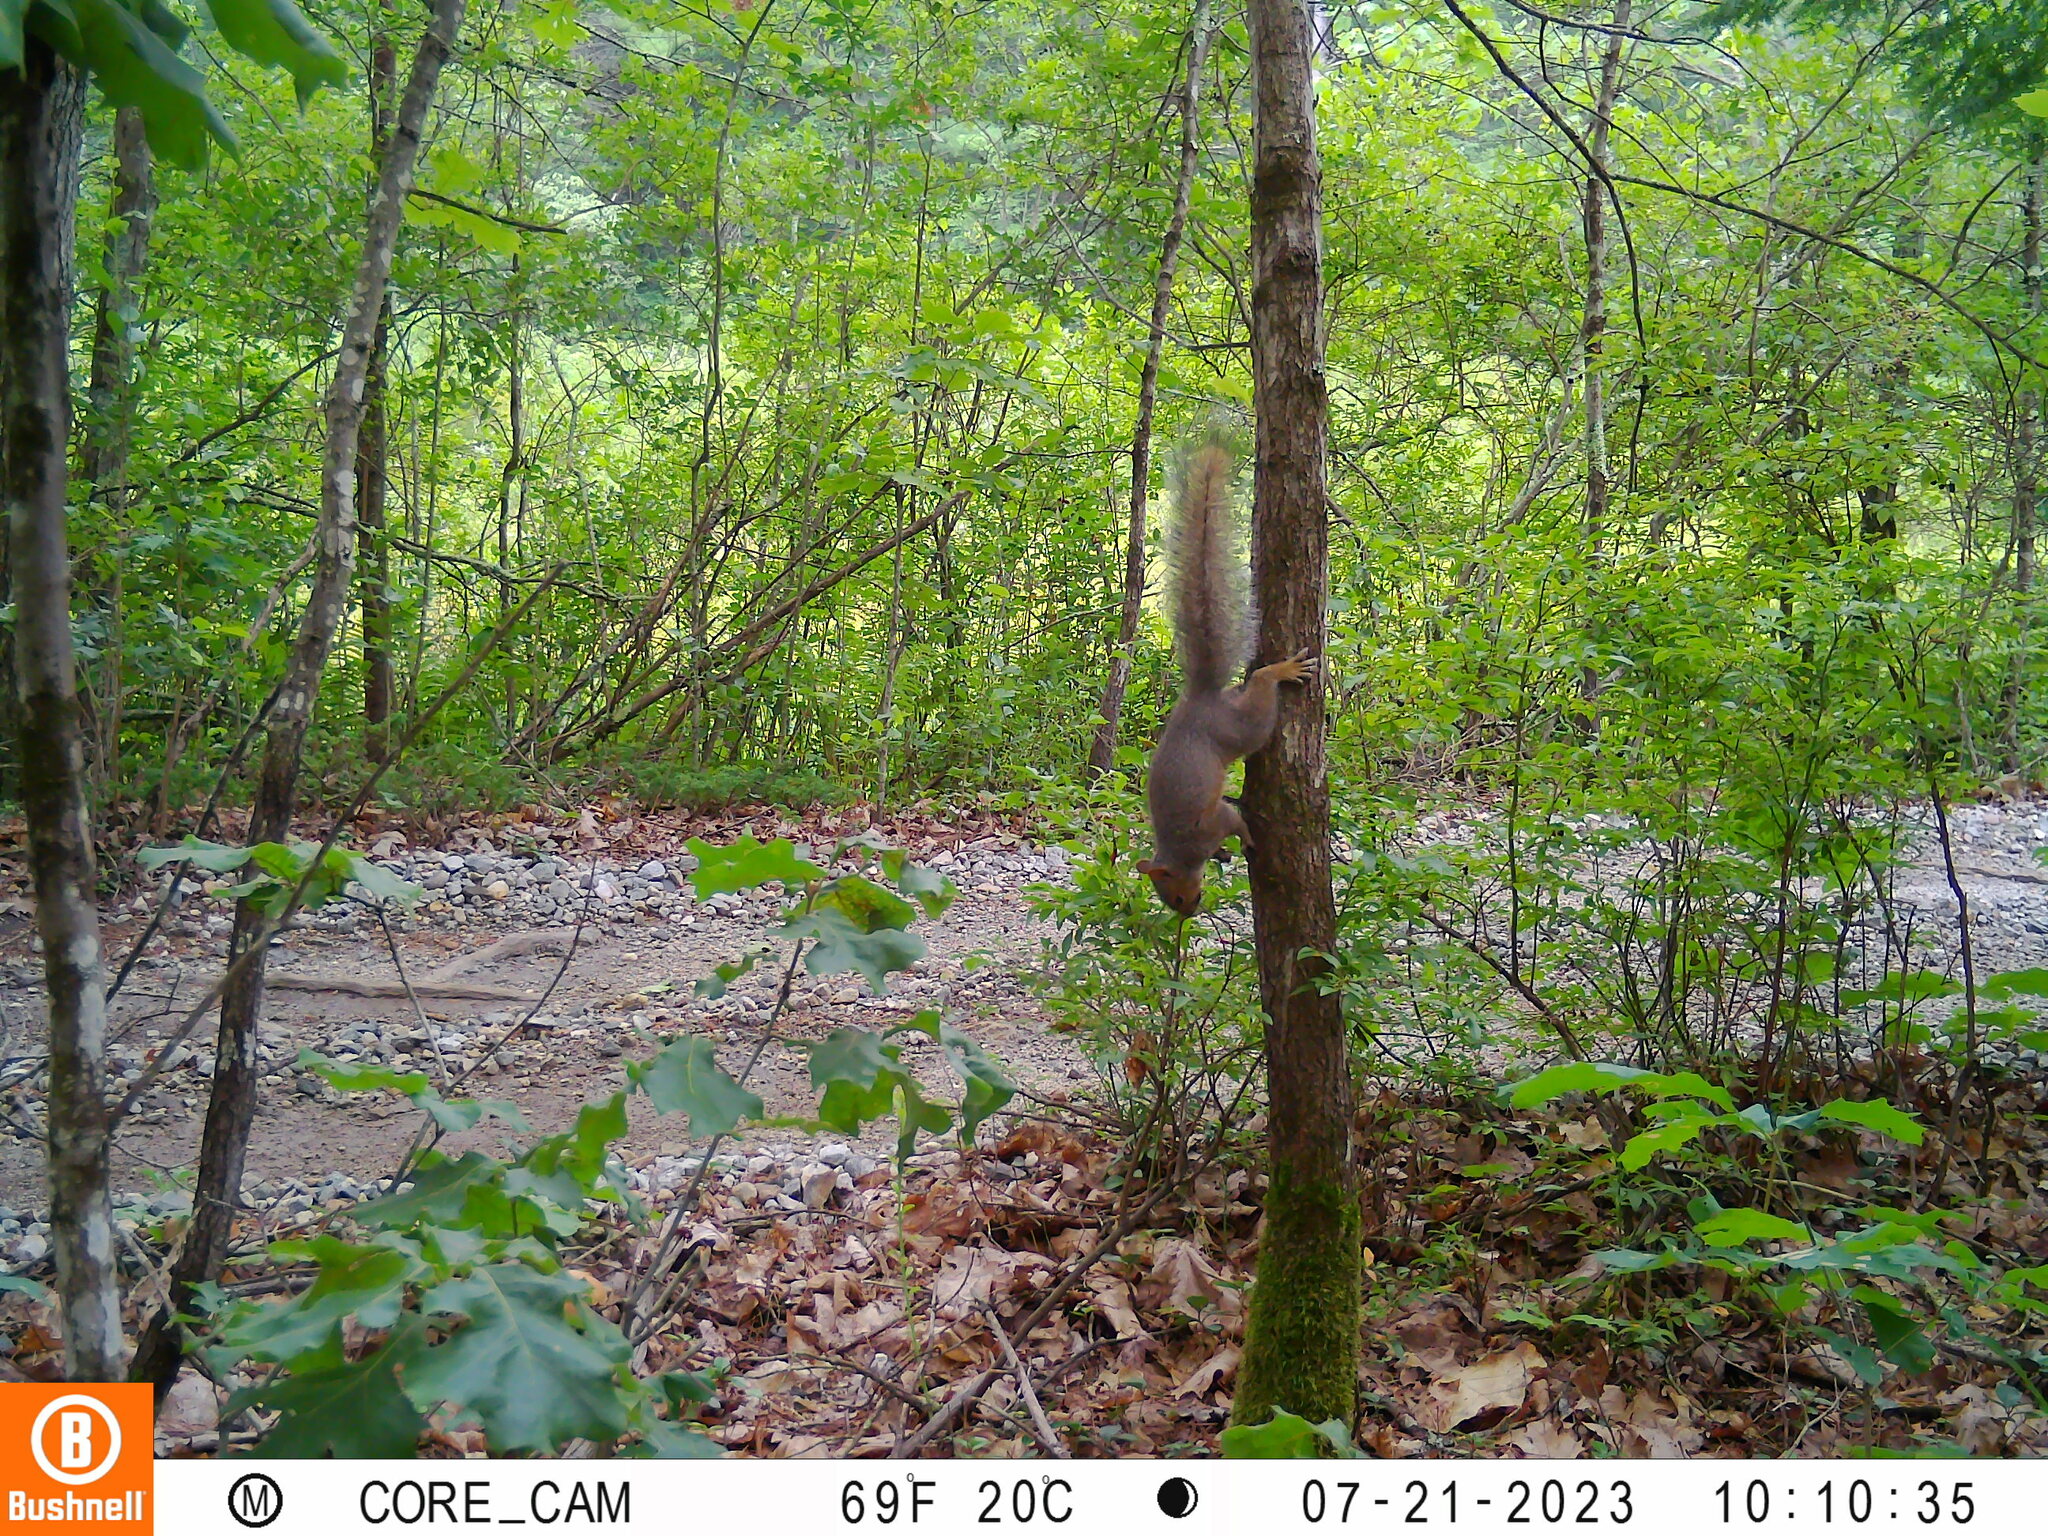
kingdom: Animalia
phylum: Chordata
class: Mammalia
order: Rodentia
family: Sciuridae
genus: Sciurus
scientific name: Sciurus carolinensis
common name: Eastern gray squirrel
